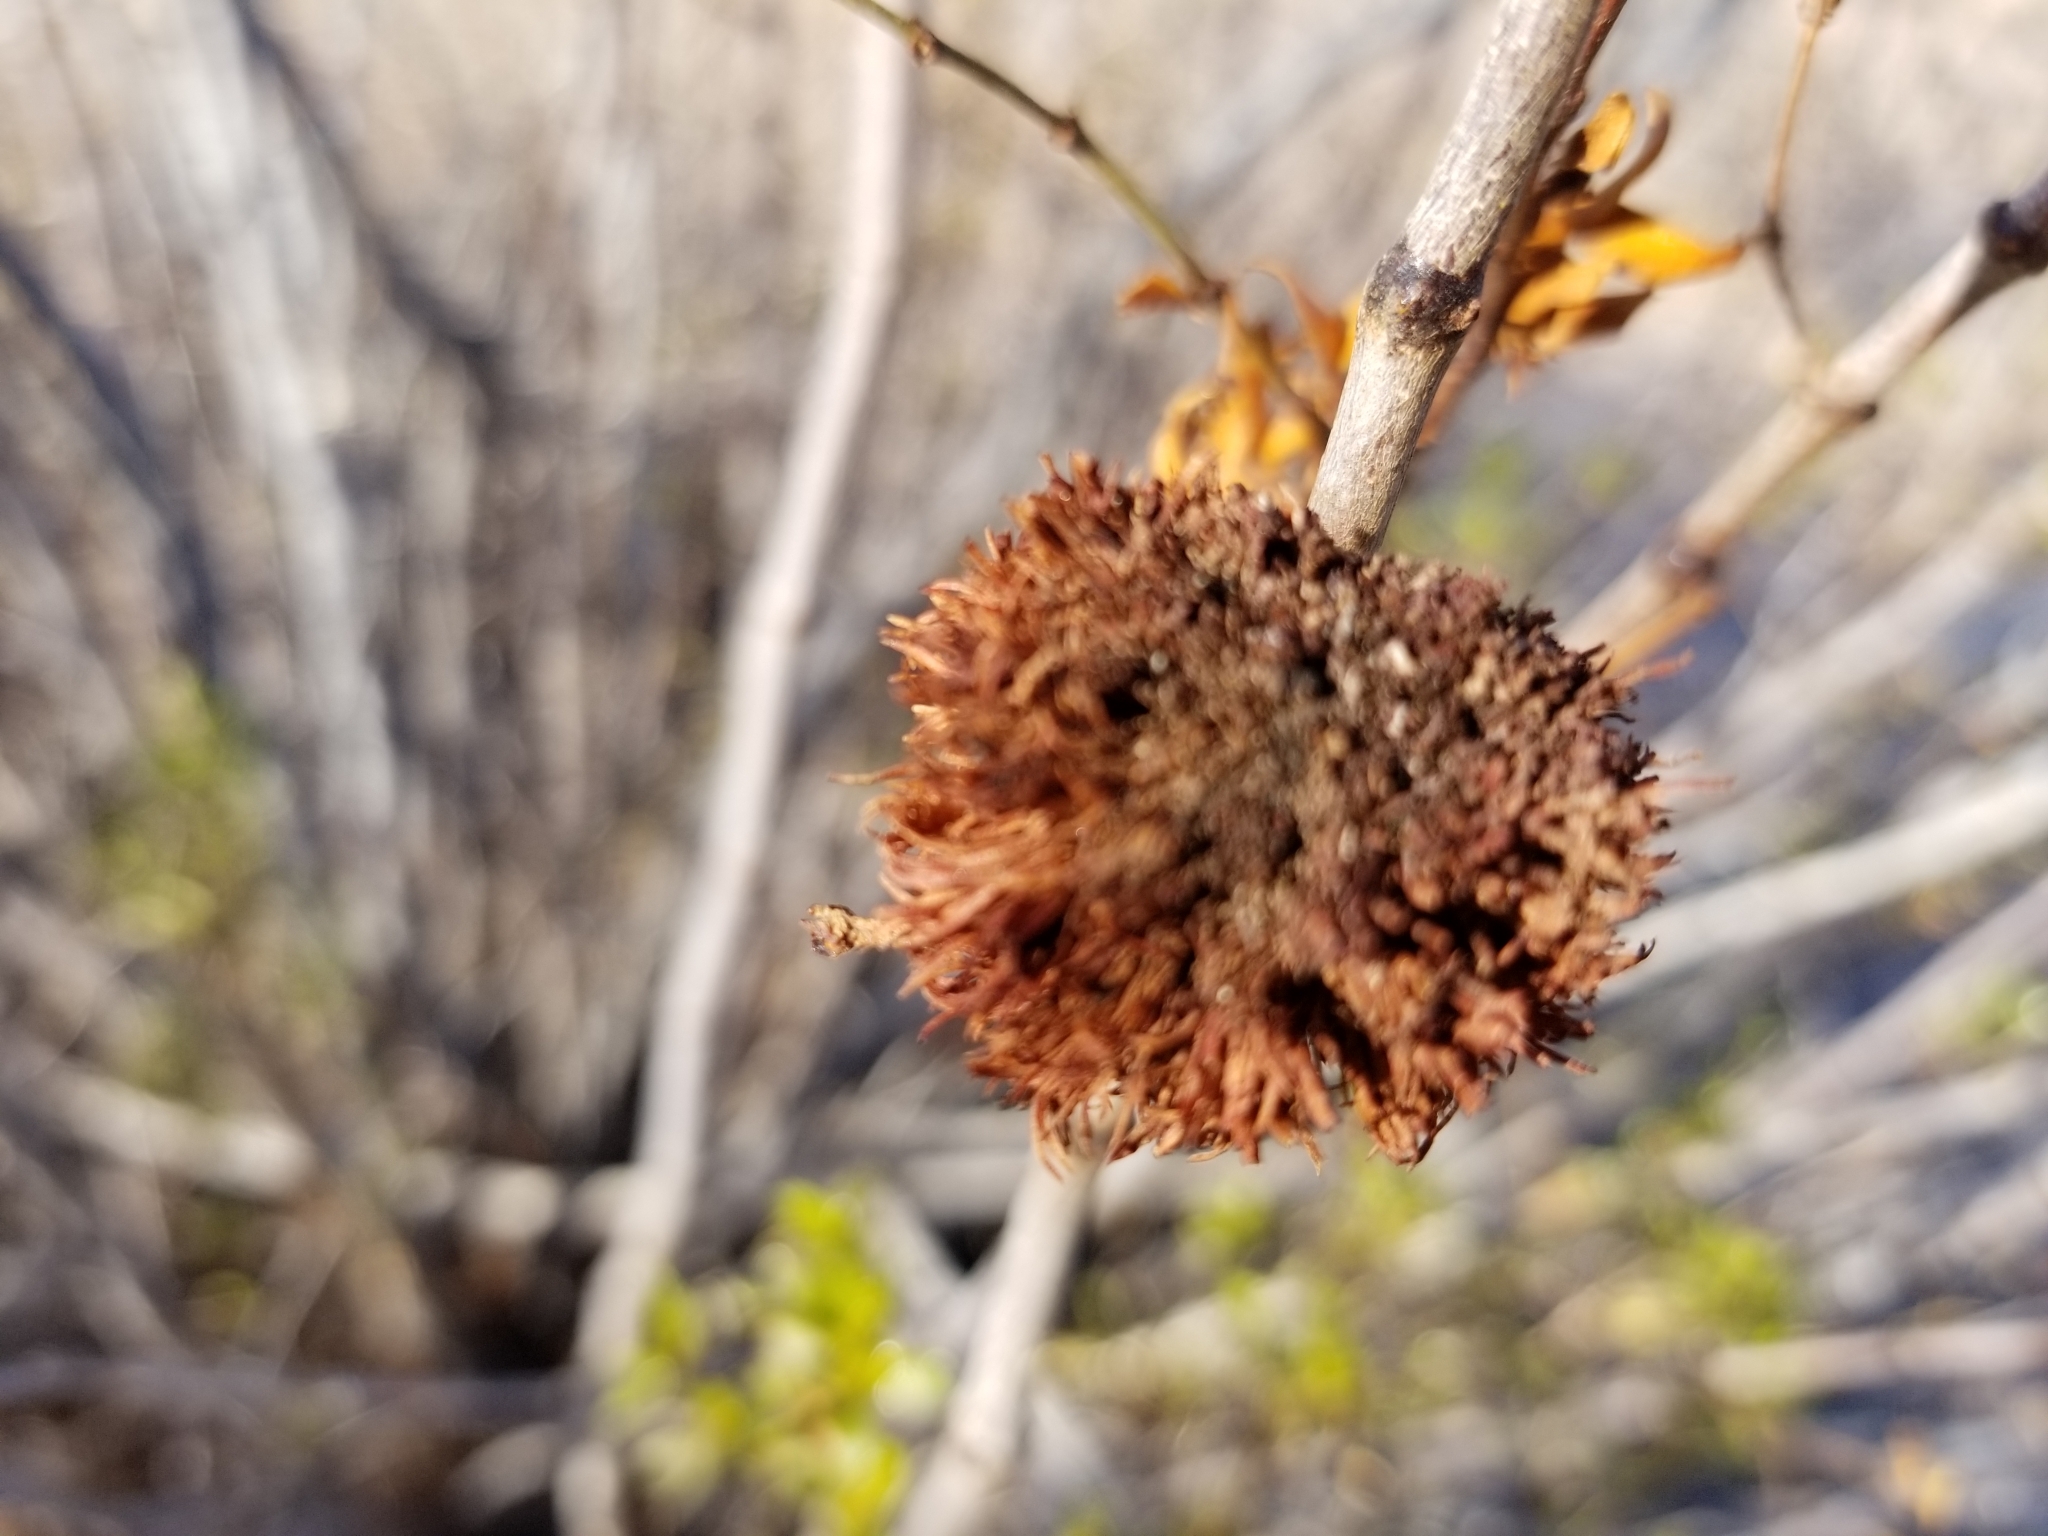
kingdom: Animalia
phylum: Arthropoda
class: Insecta
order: Diptera
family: Cecidomyiidae
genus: Asphondylia
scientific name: Asphondylia auripila
